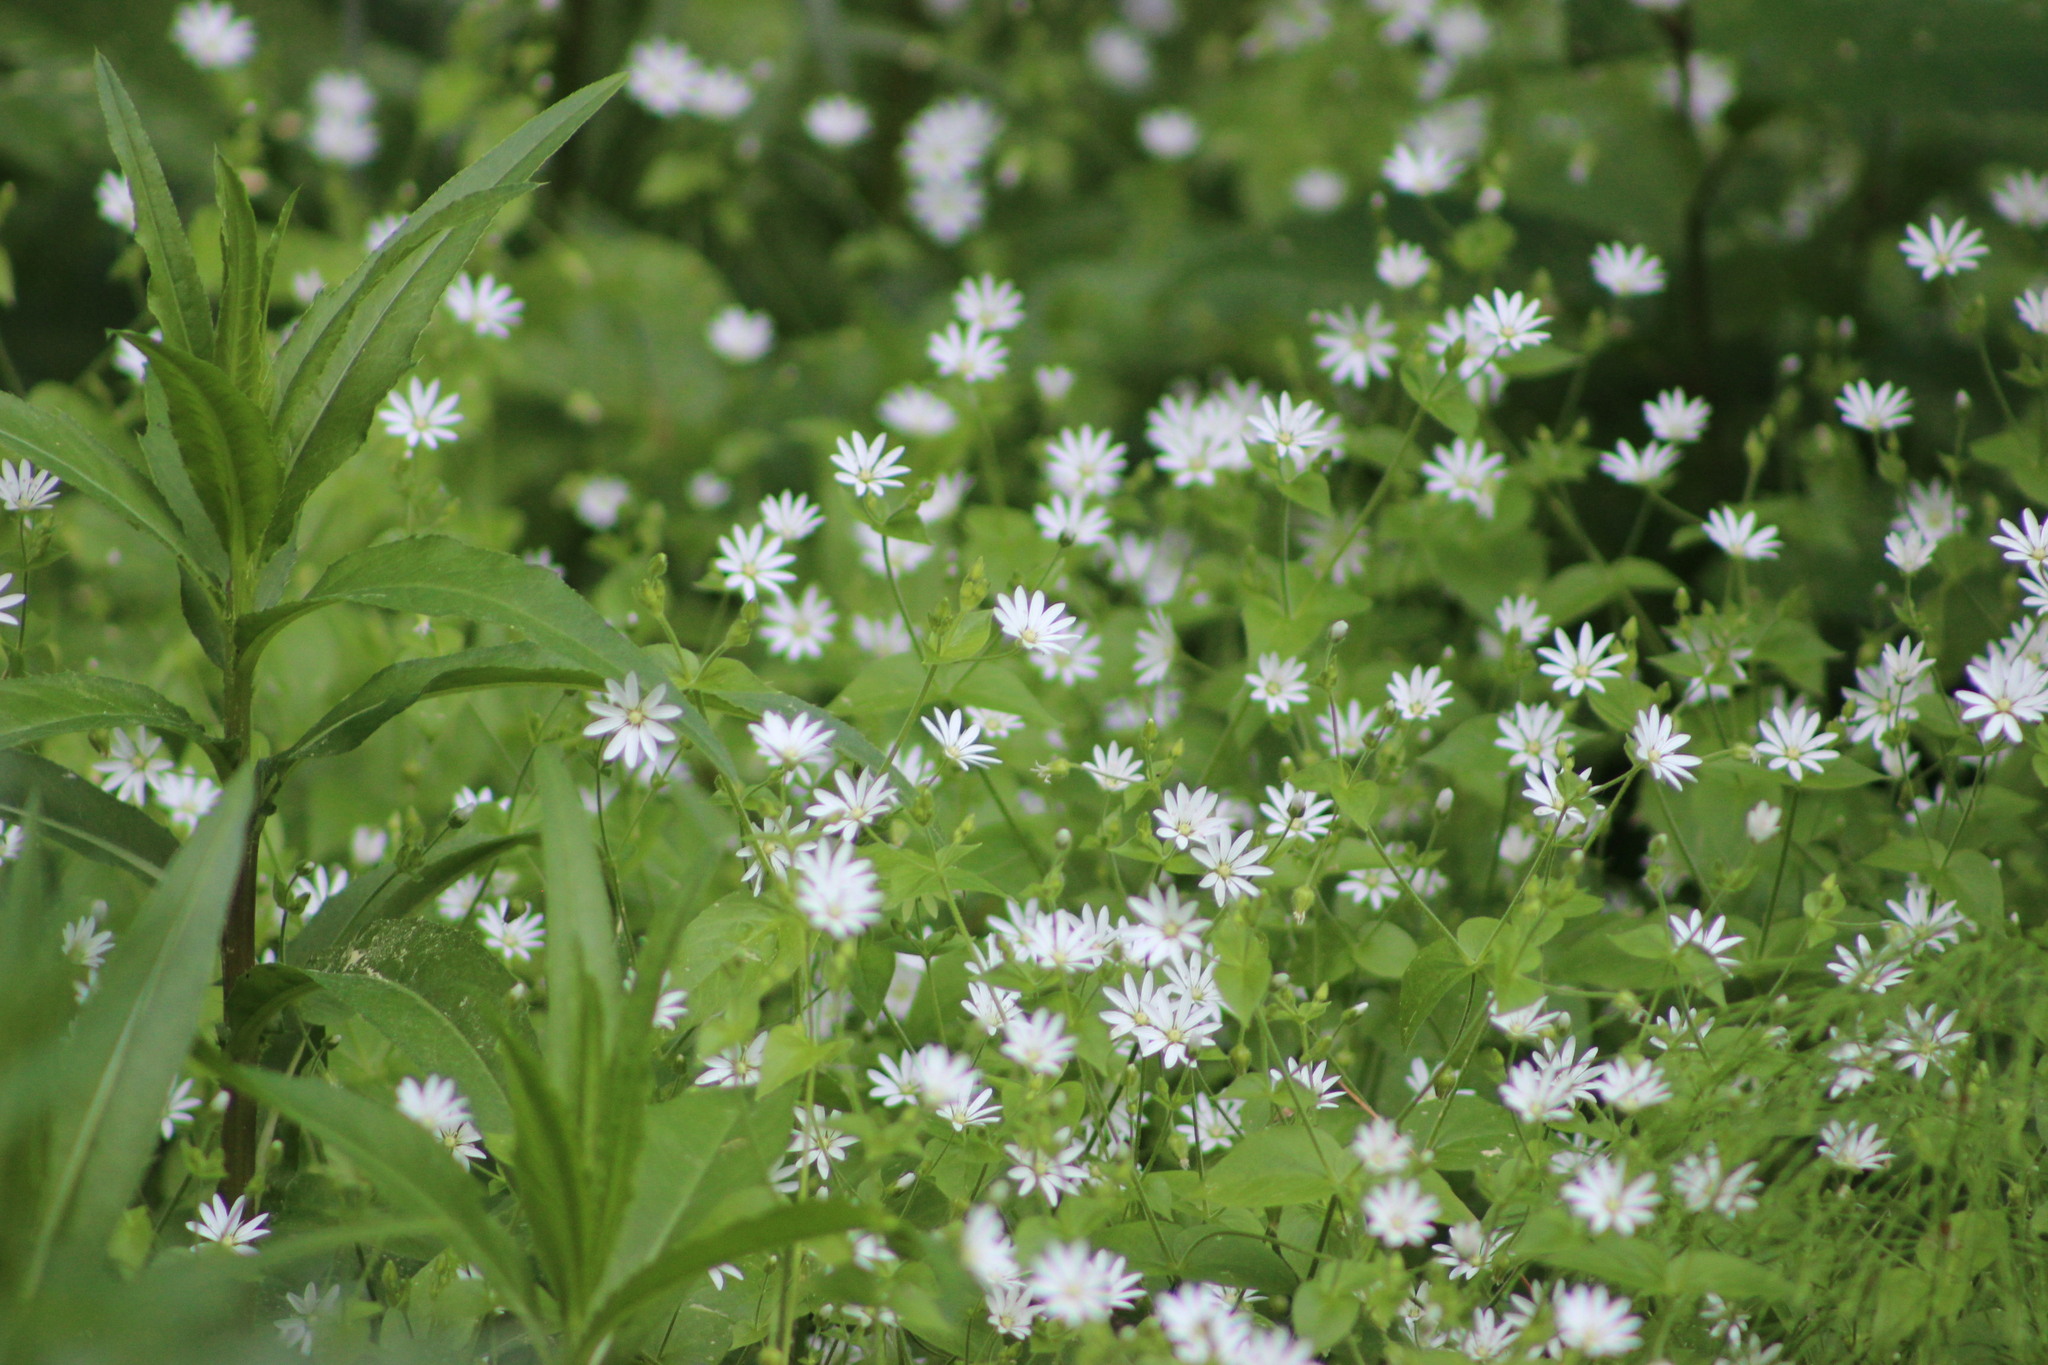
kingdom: Plantae
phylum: Tracheophyta
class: Magnoliopsida
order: Caryophyllales
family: Caryophyllaceae
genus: Stellaria
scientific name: Stellaria bungeana
